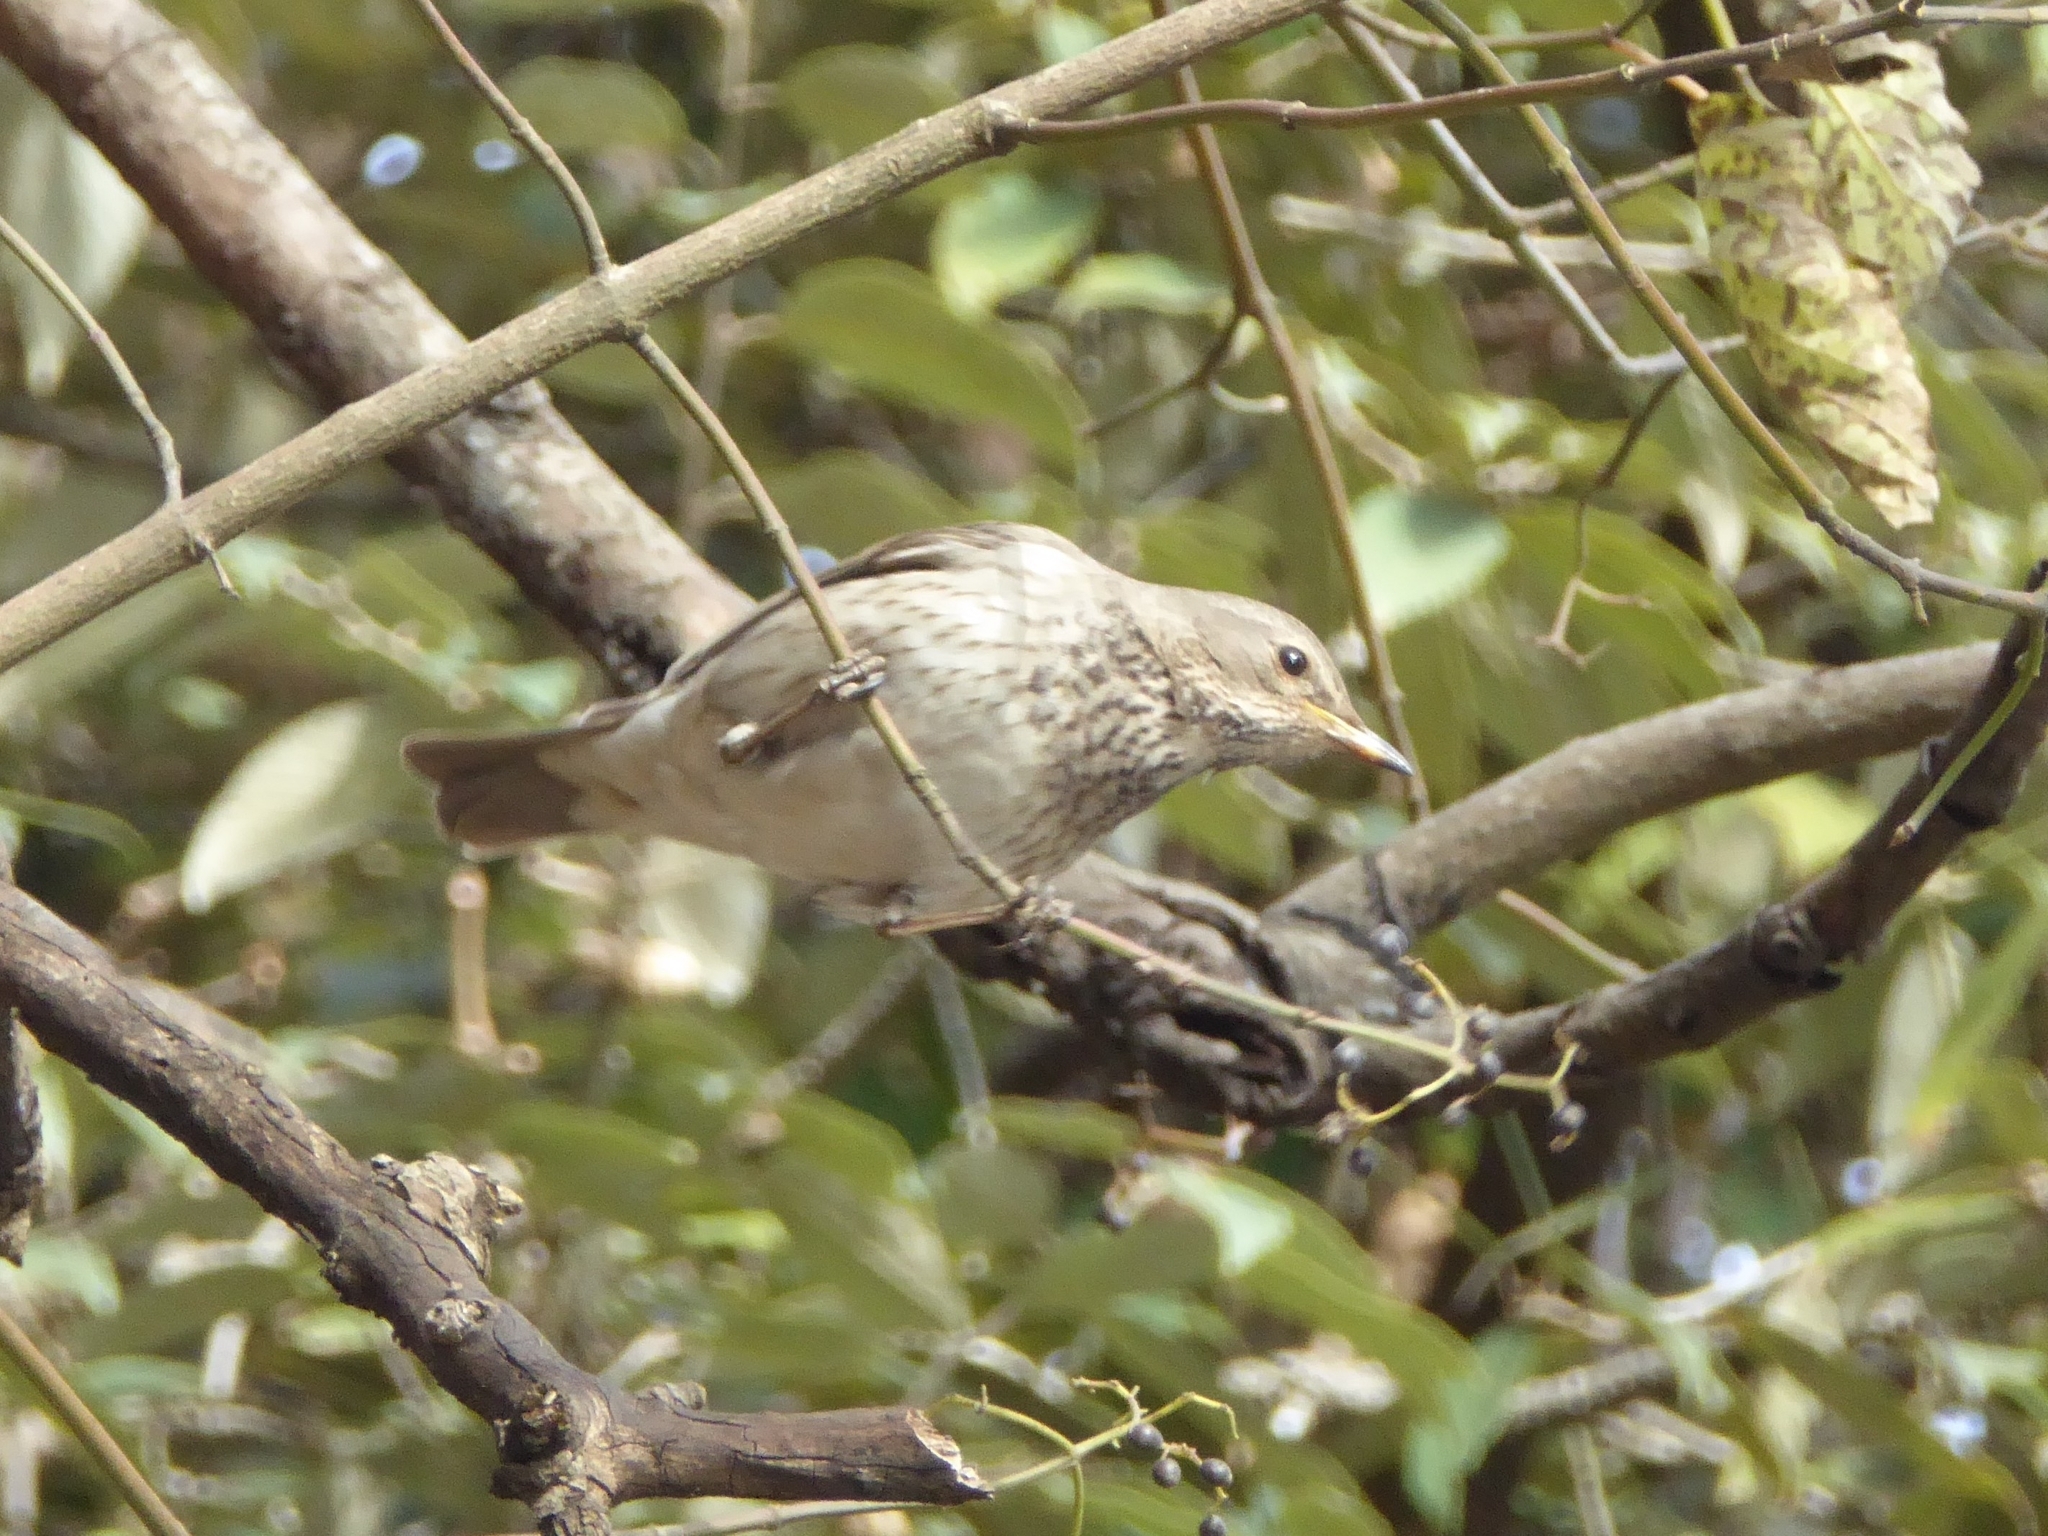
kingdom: Animalia
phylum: Chordata
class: Aves
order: Passeriformes
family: Turdidae
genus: Turdus
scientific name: Turdus atrogularis
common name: Black-throated thrush
